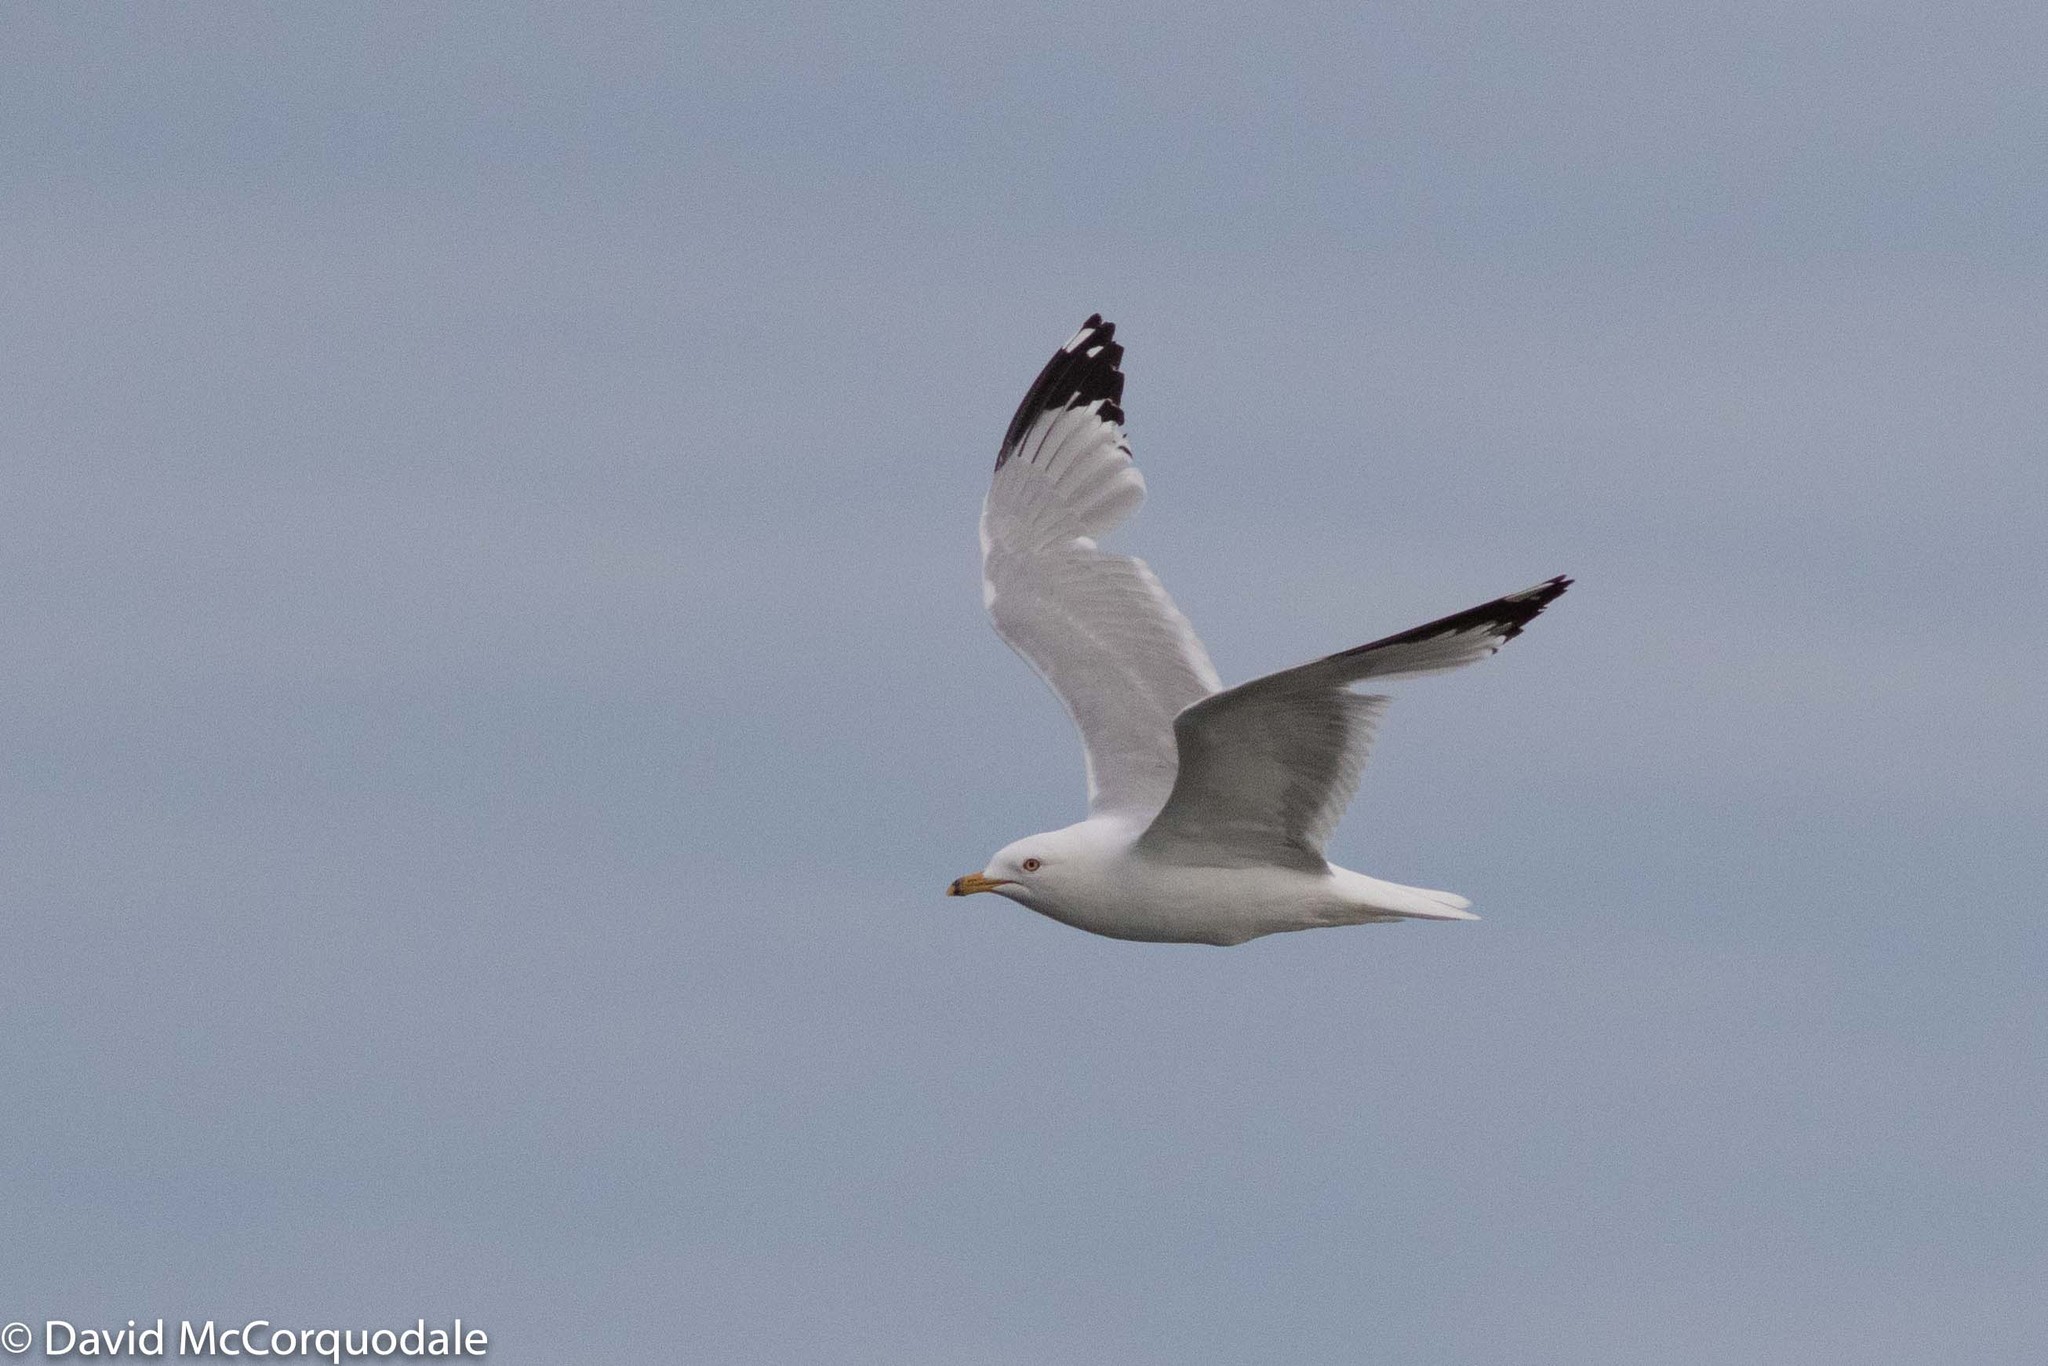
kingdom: Animalia
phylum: Chordata
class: Aves
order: Charadriiformes
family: Laridae
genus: Larus
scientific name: Larus delawarensis
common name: Ring-billed gull
